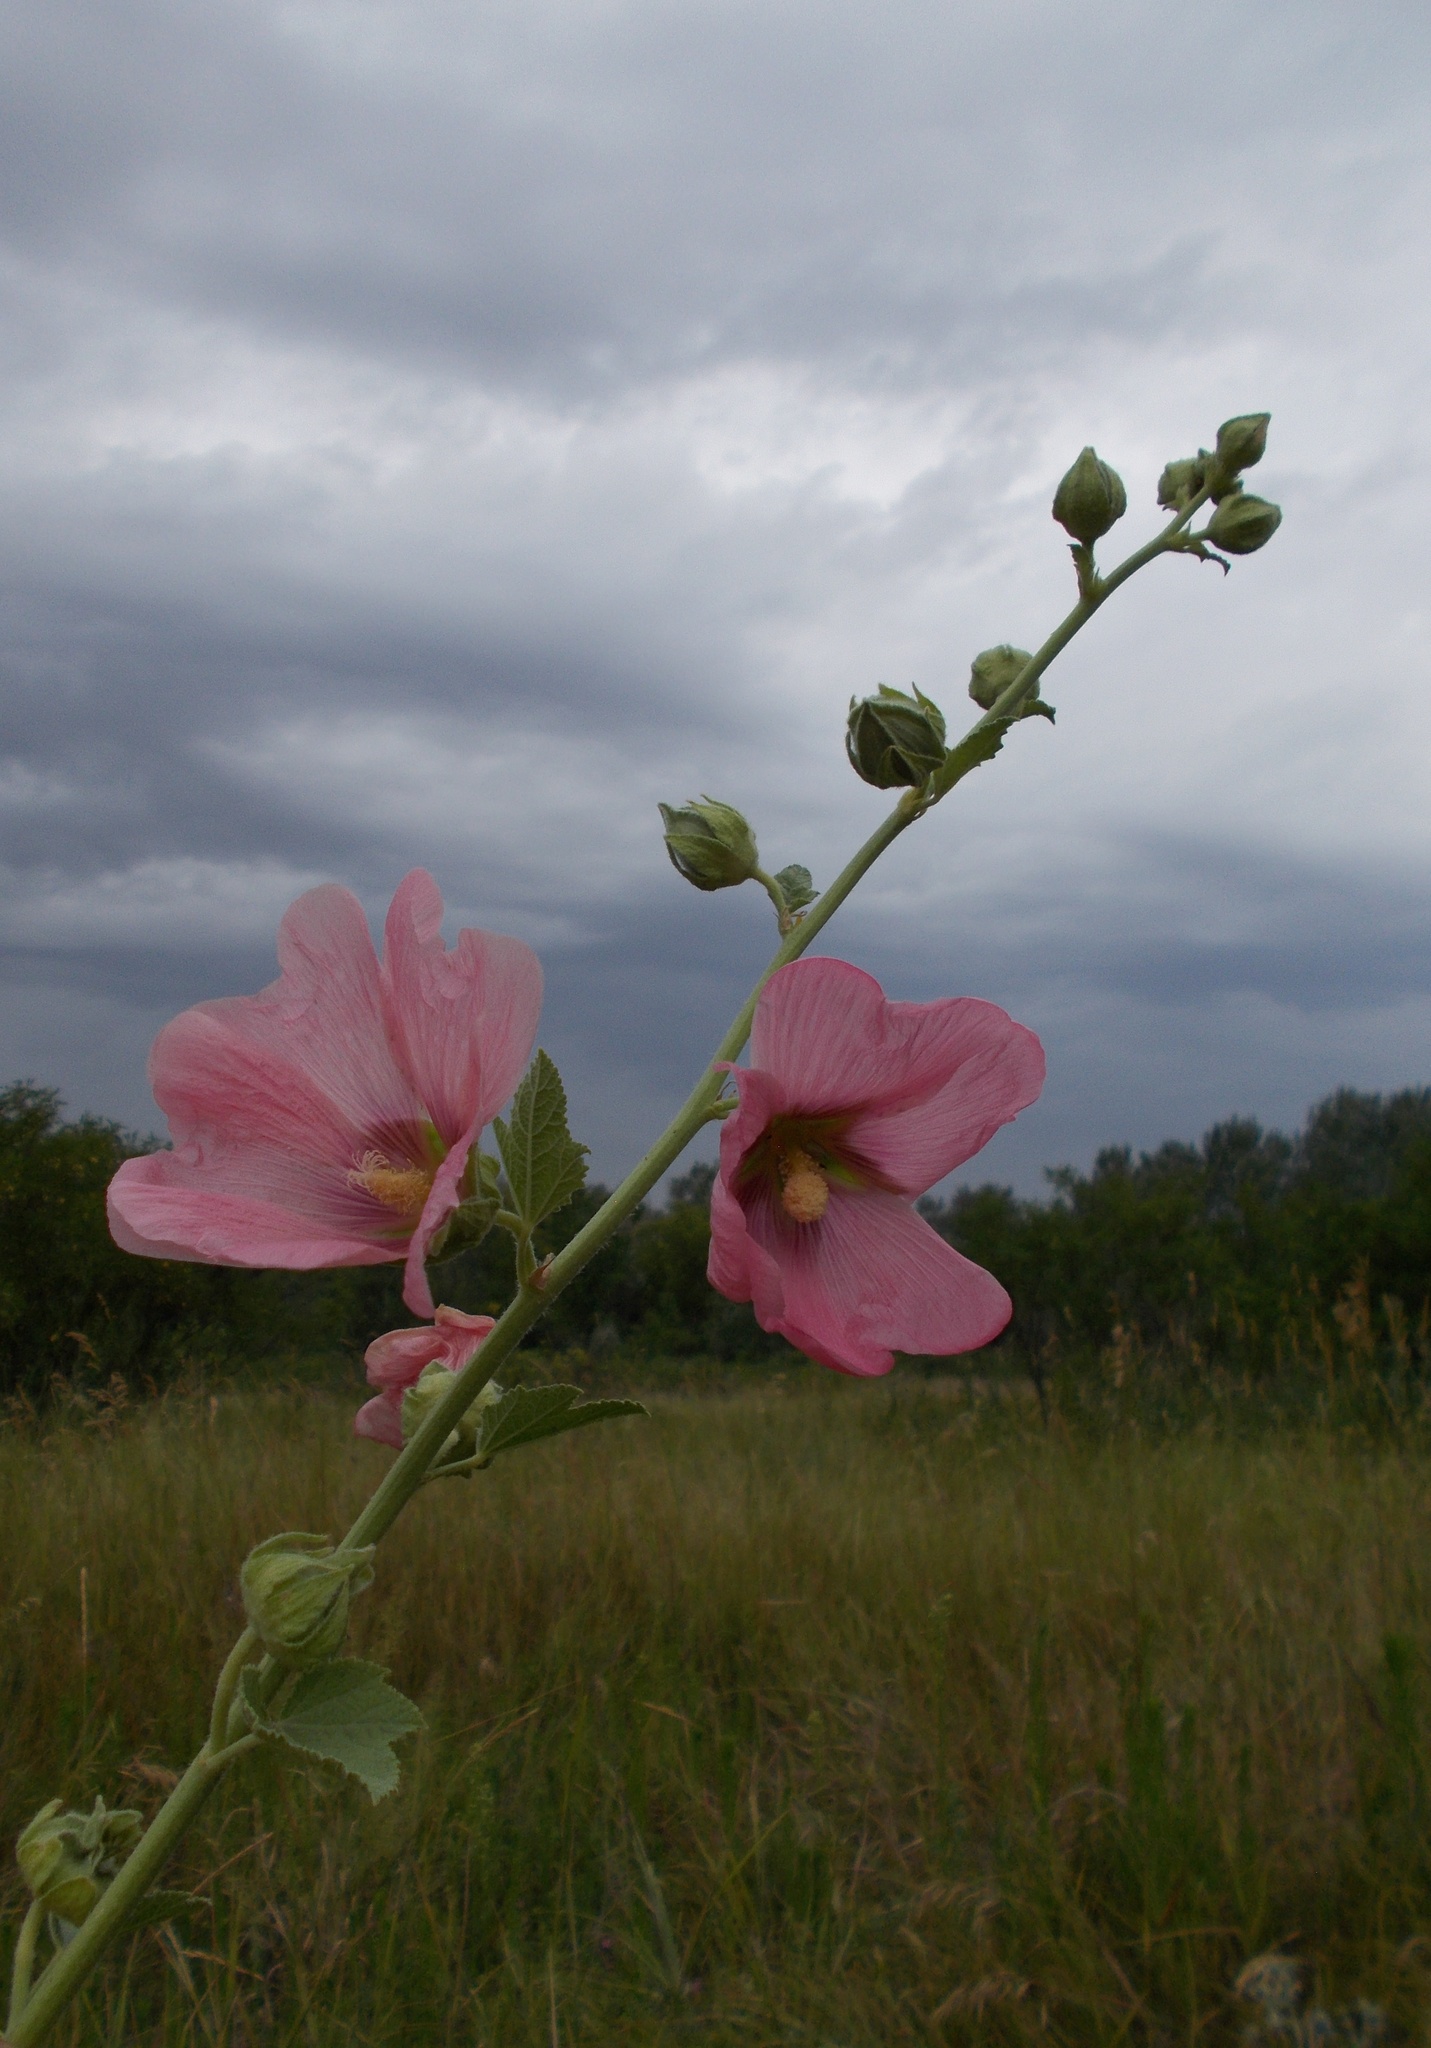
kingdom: Plantae
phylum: Tracheophyta
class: Magnoliopsida
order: Malvales
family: Malvaceae
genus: Alcea
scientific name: Alcea rosea
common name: Hollyhock
